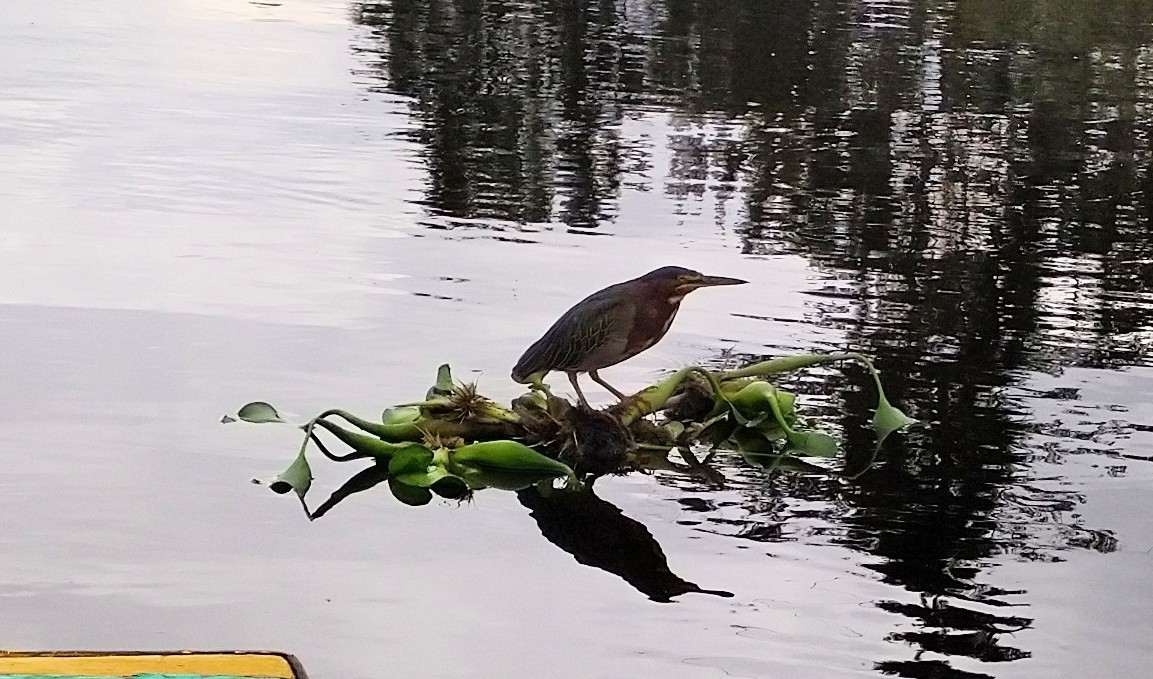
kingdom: Animalia
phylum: Chordata
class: Aves
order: Pelecaniformes
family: Ardeidae
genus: Butorides
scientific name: Butorides virescens
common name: Green heron
